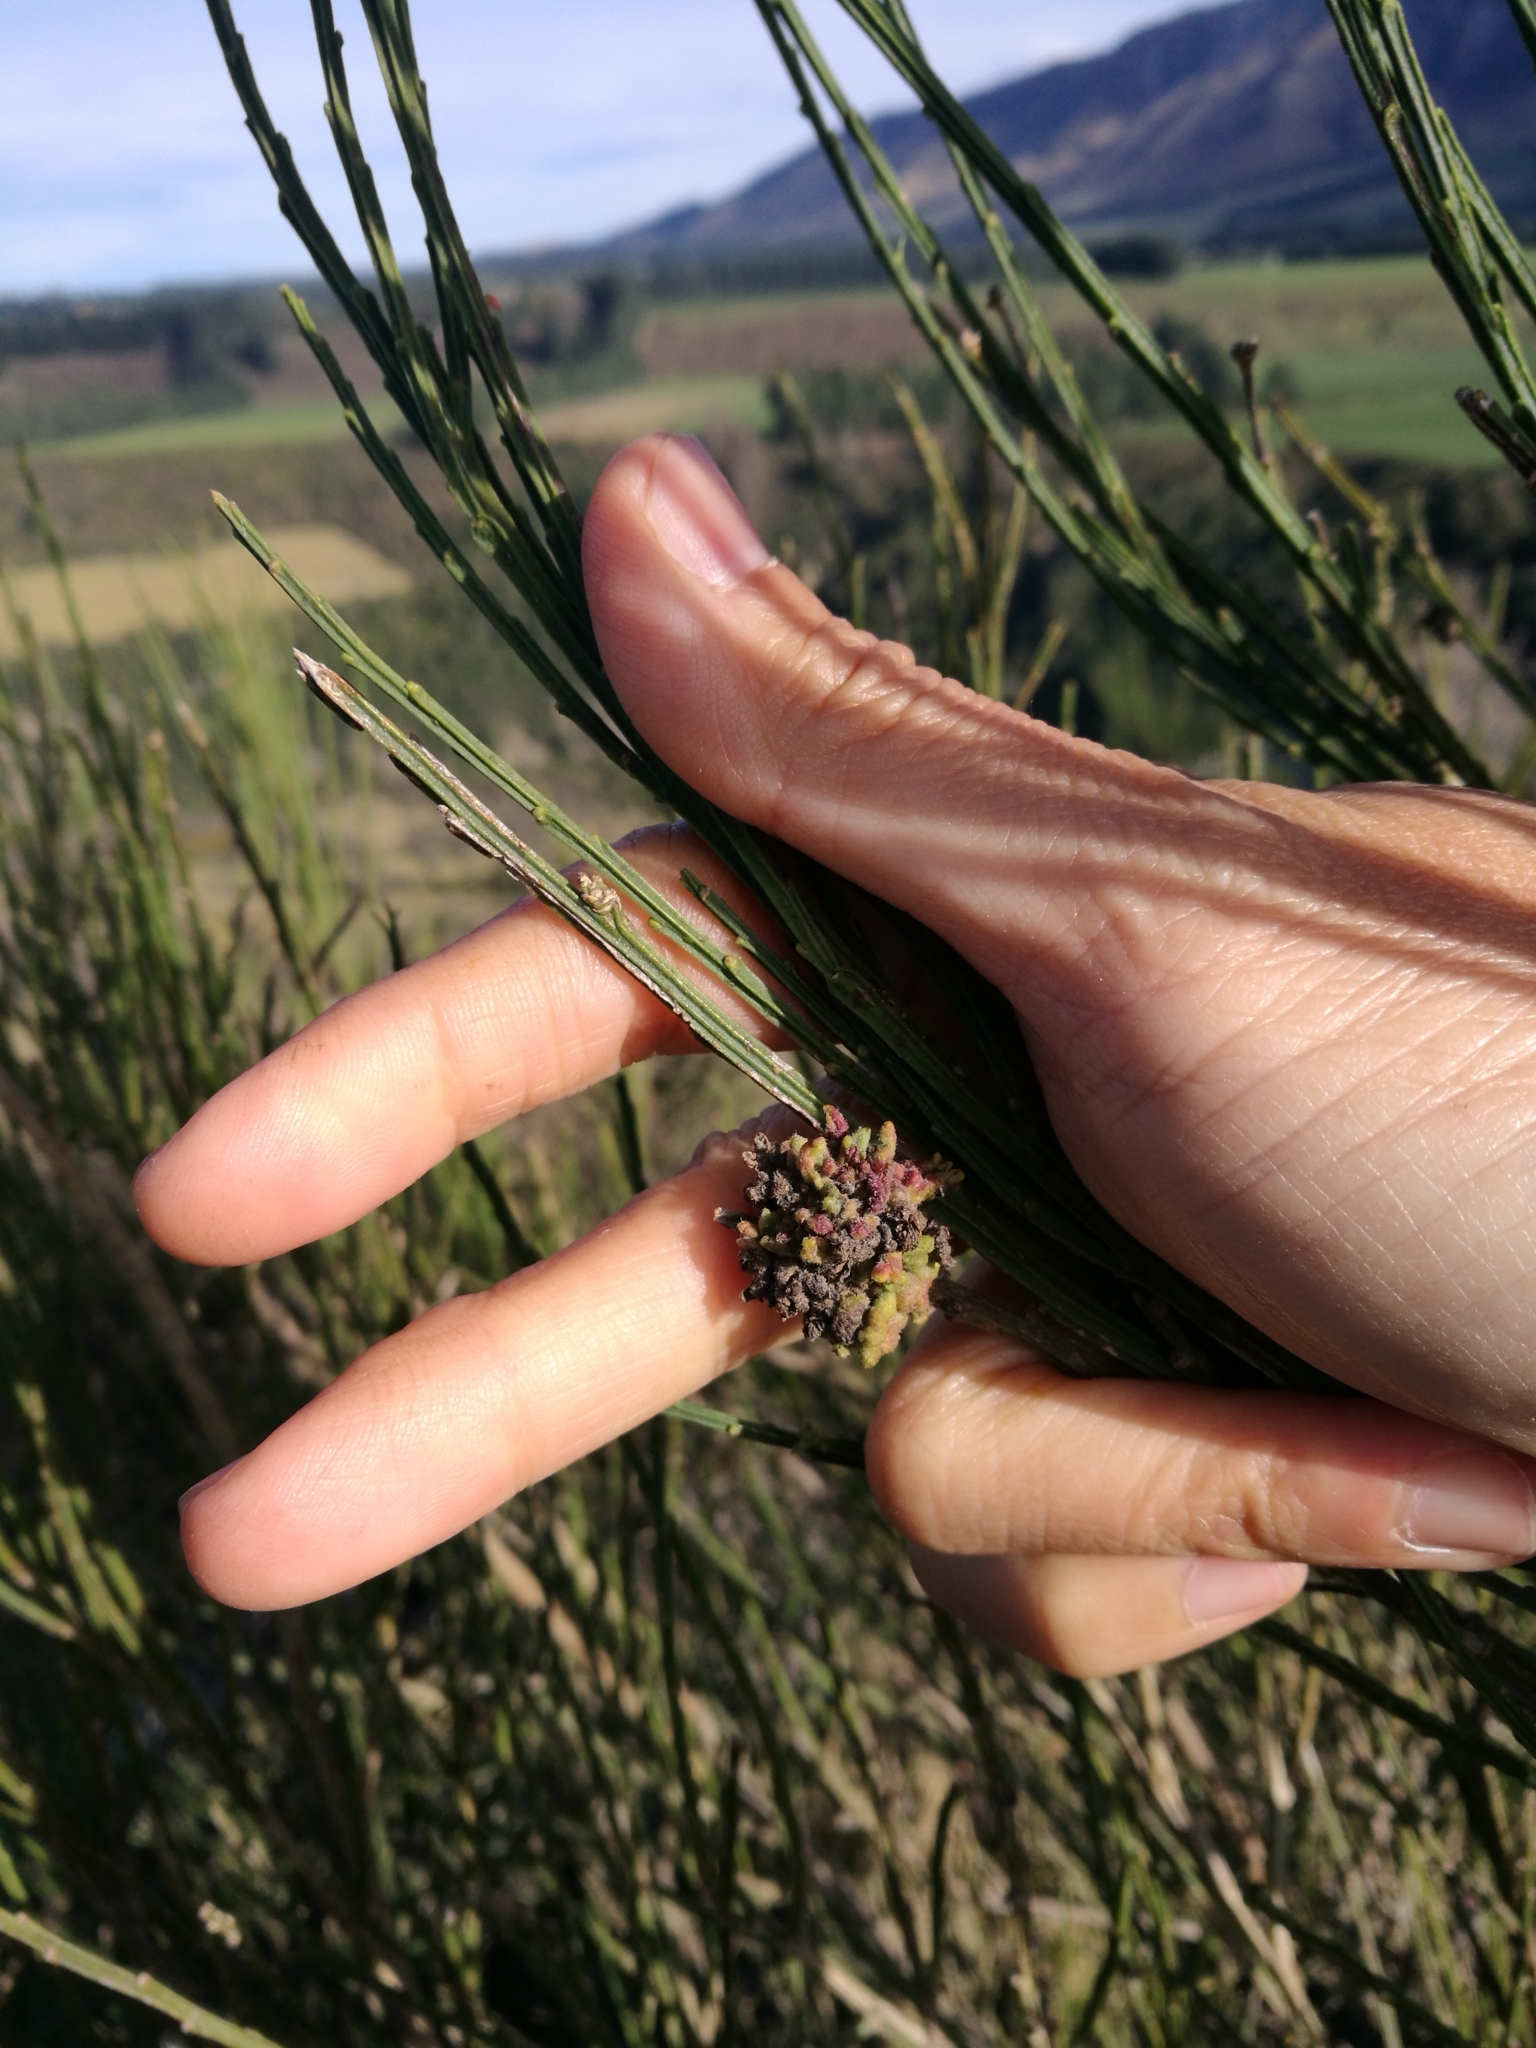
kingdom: Plantae
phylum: Tracheophyta
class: Magnoliopsida
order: Fabales
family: Fabaceae
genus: Cytisus
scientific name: Cytisus scoparius
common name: Scotch broom
